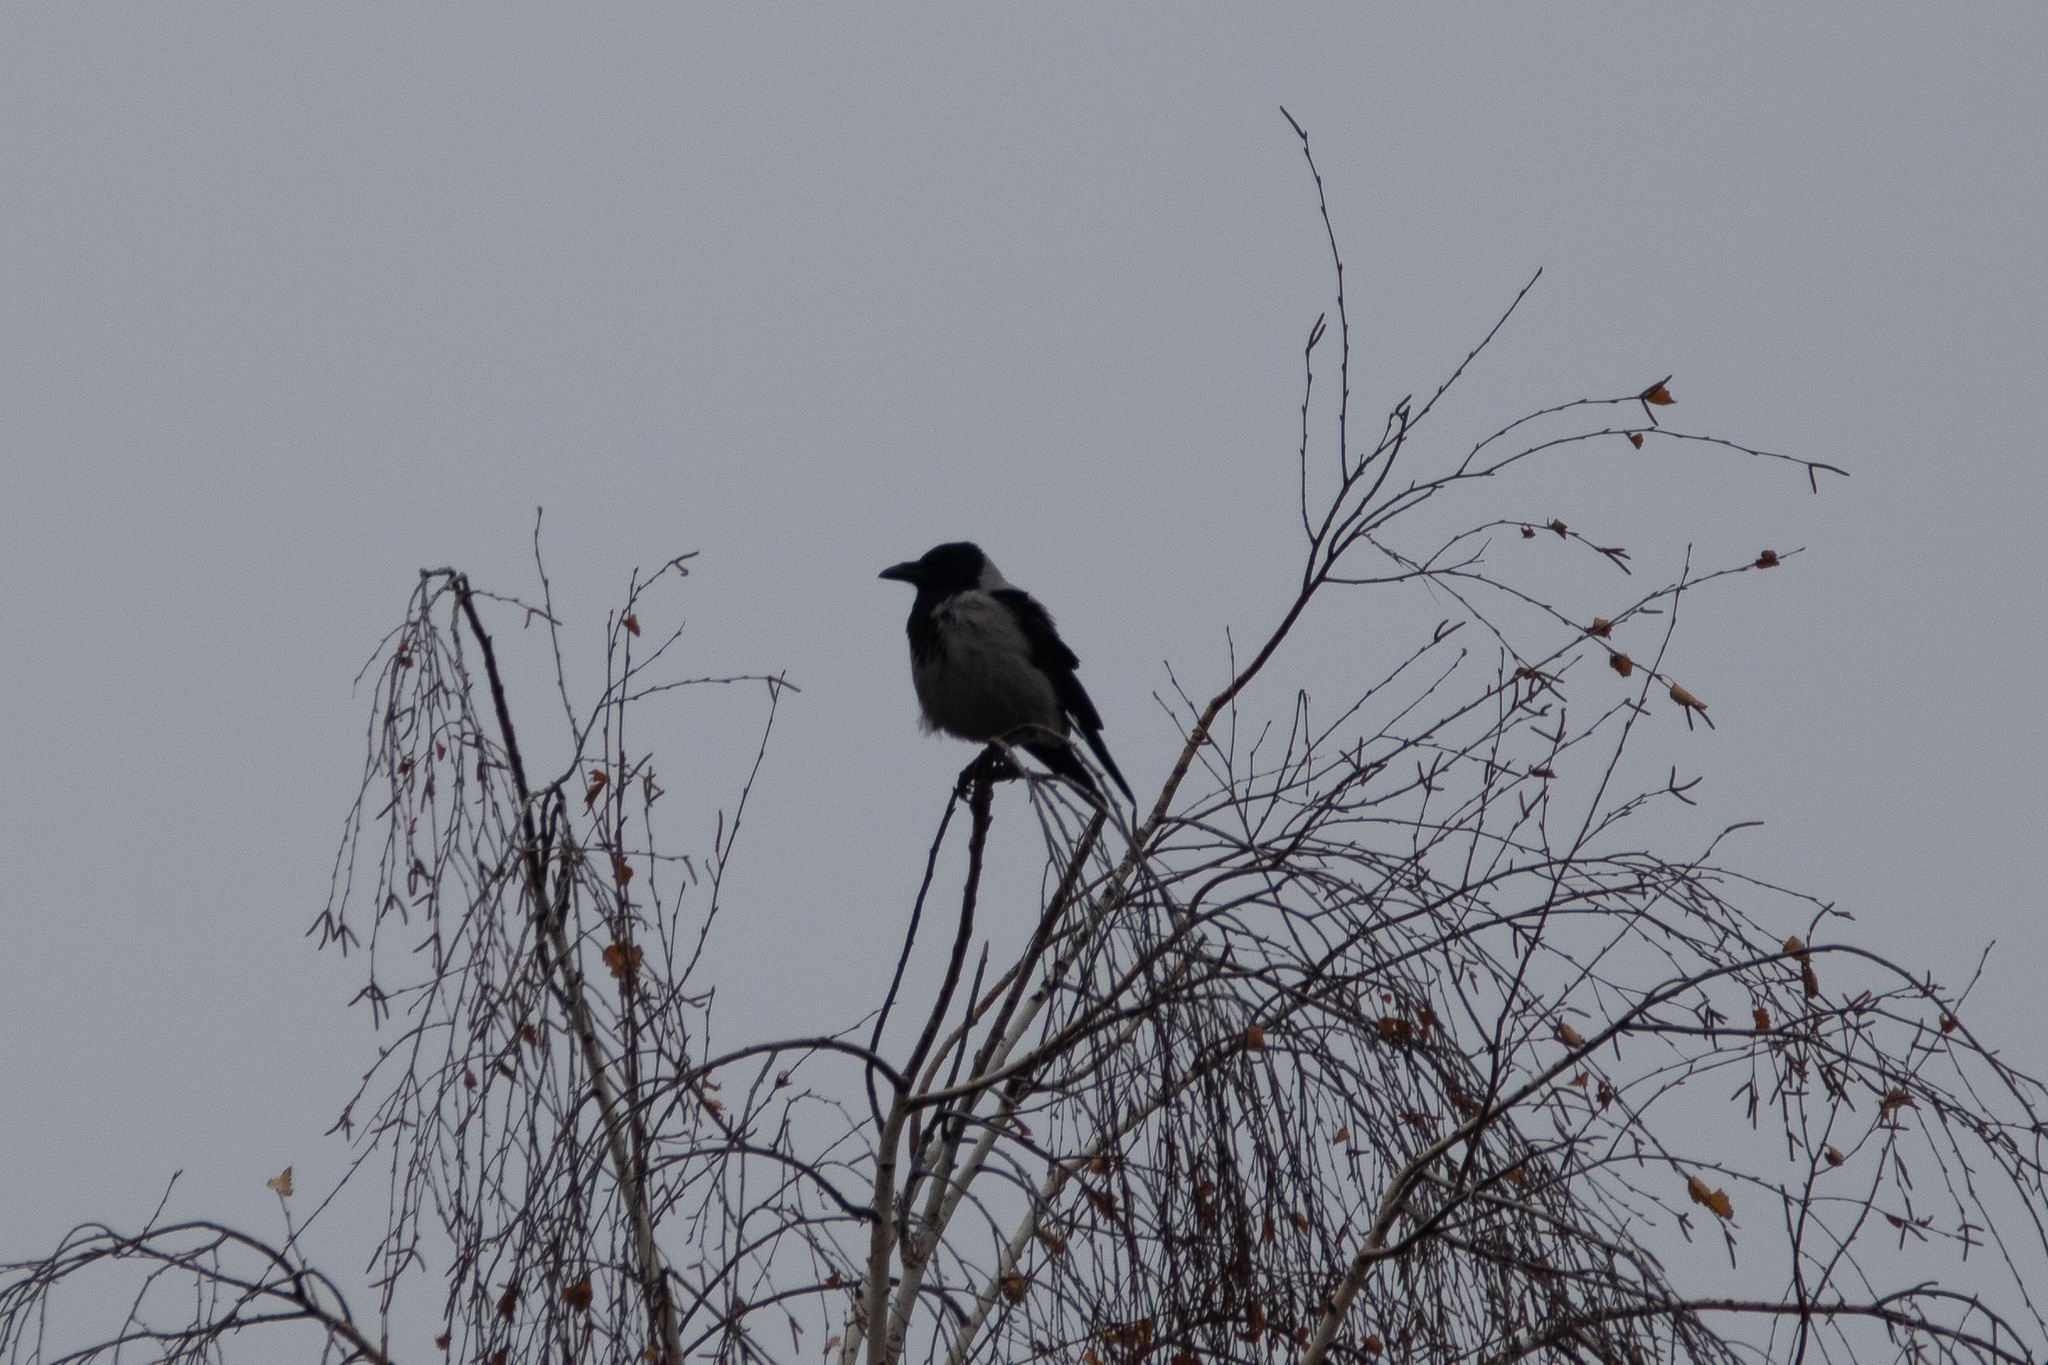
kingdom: Animalia
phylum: Chordata
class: Aves
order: Passeriformes
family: Corvidae
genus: Corvus
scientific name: Corvus cornix
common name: Hooded crow
